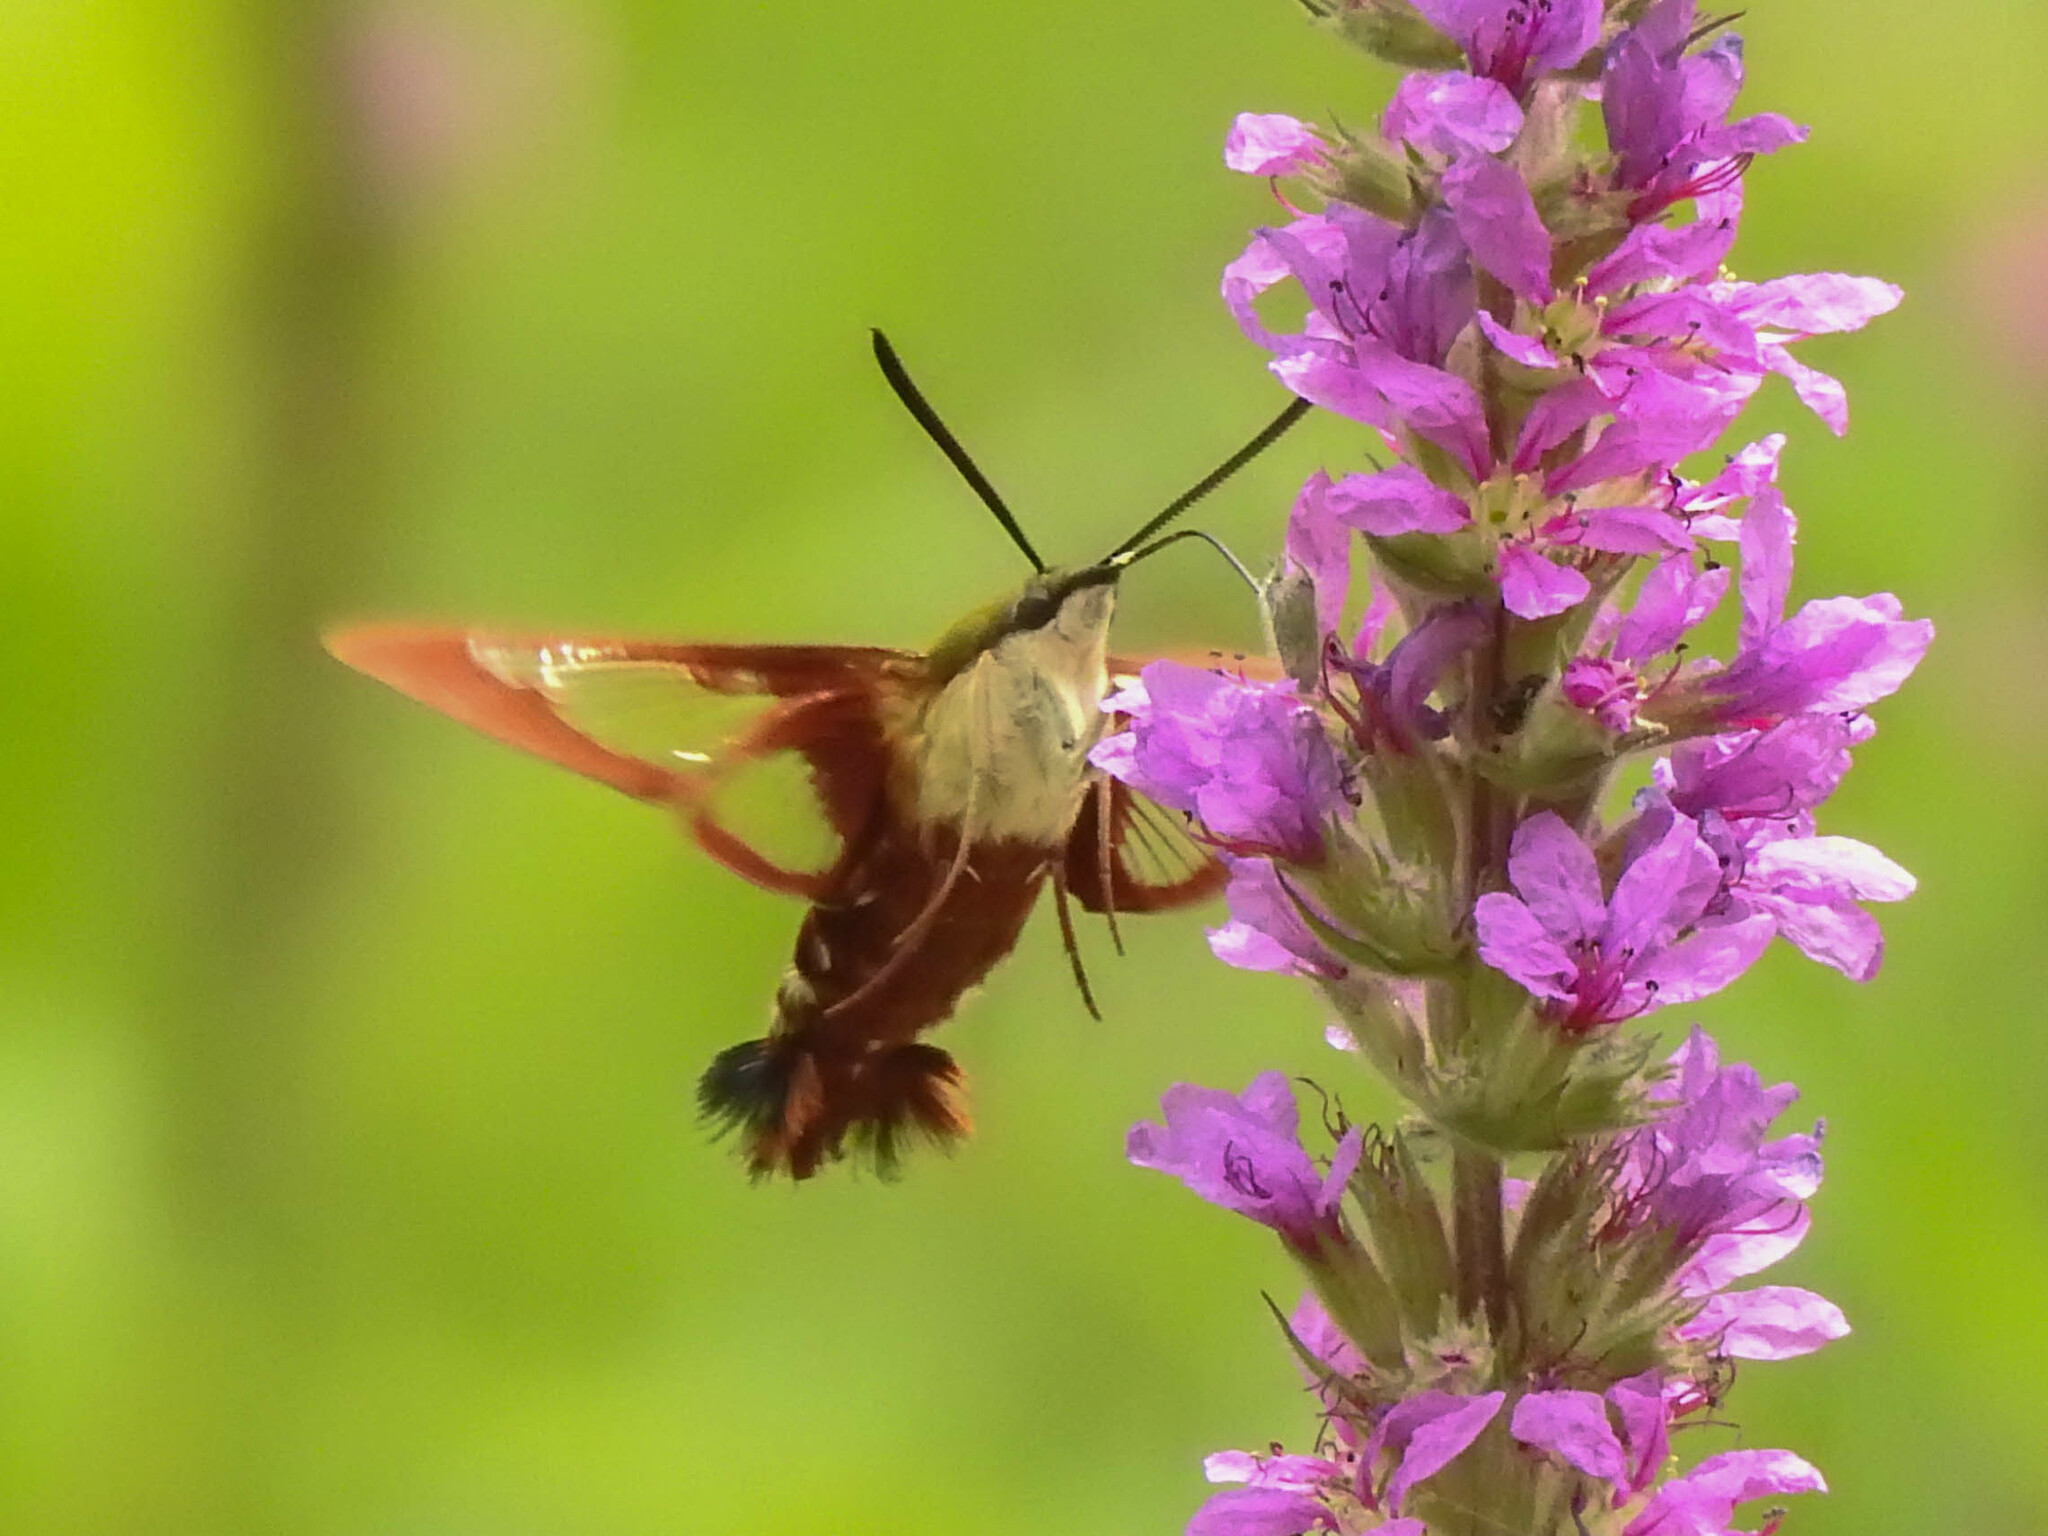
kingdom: Animalia
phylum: Arthropoda
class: Insecta
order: Lepidoptera
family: Sphingidae
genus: Hemaris
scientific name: Hemaris thysbe
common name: Common clear-wing
